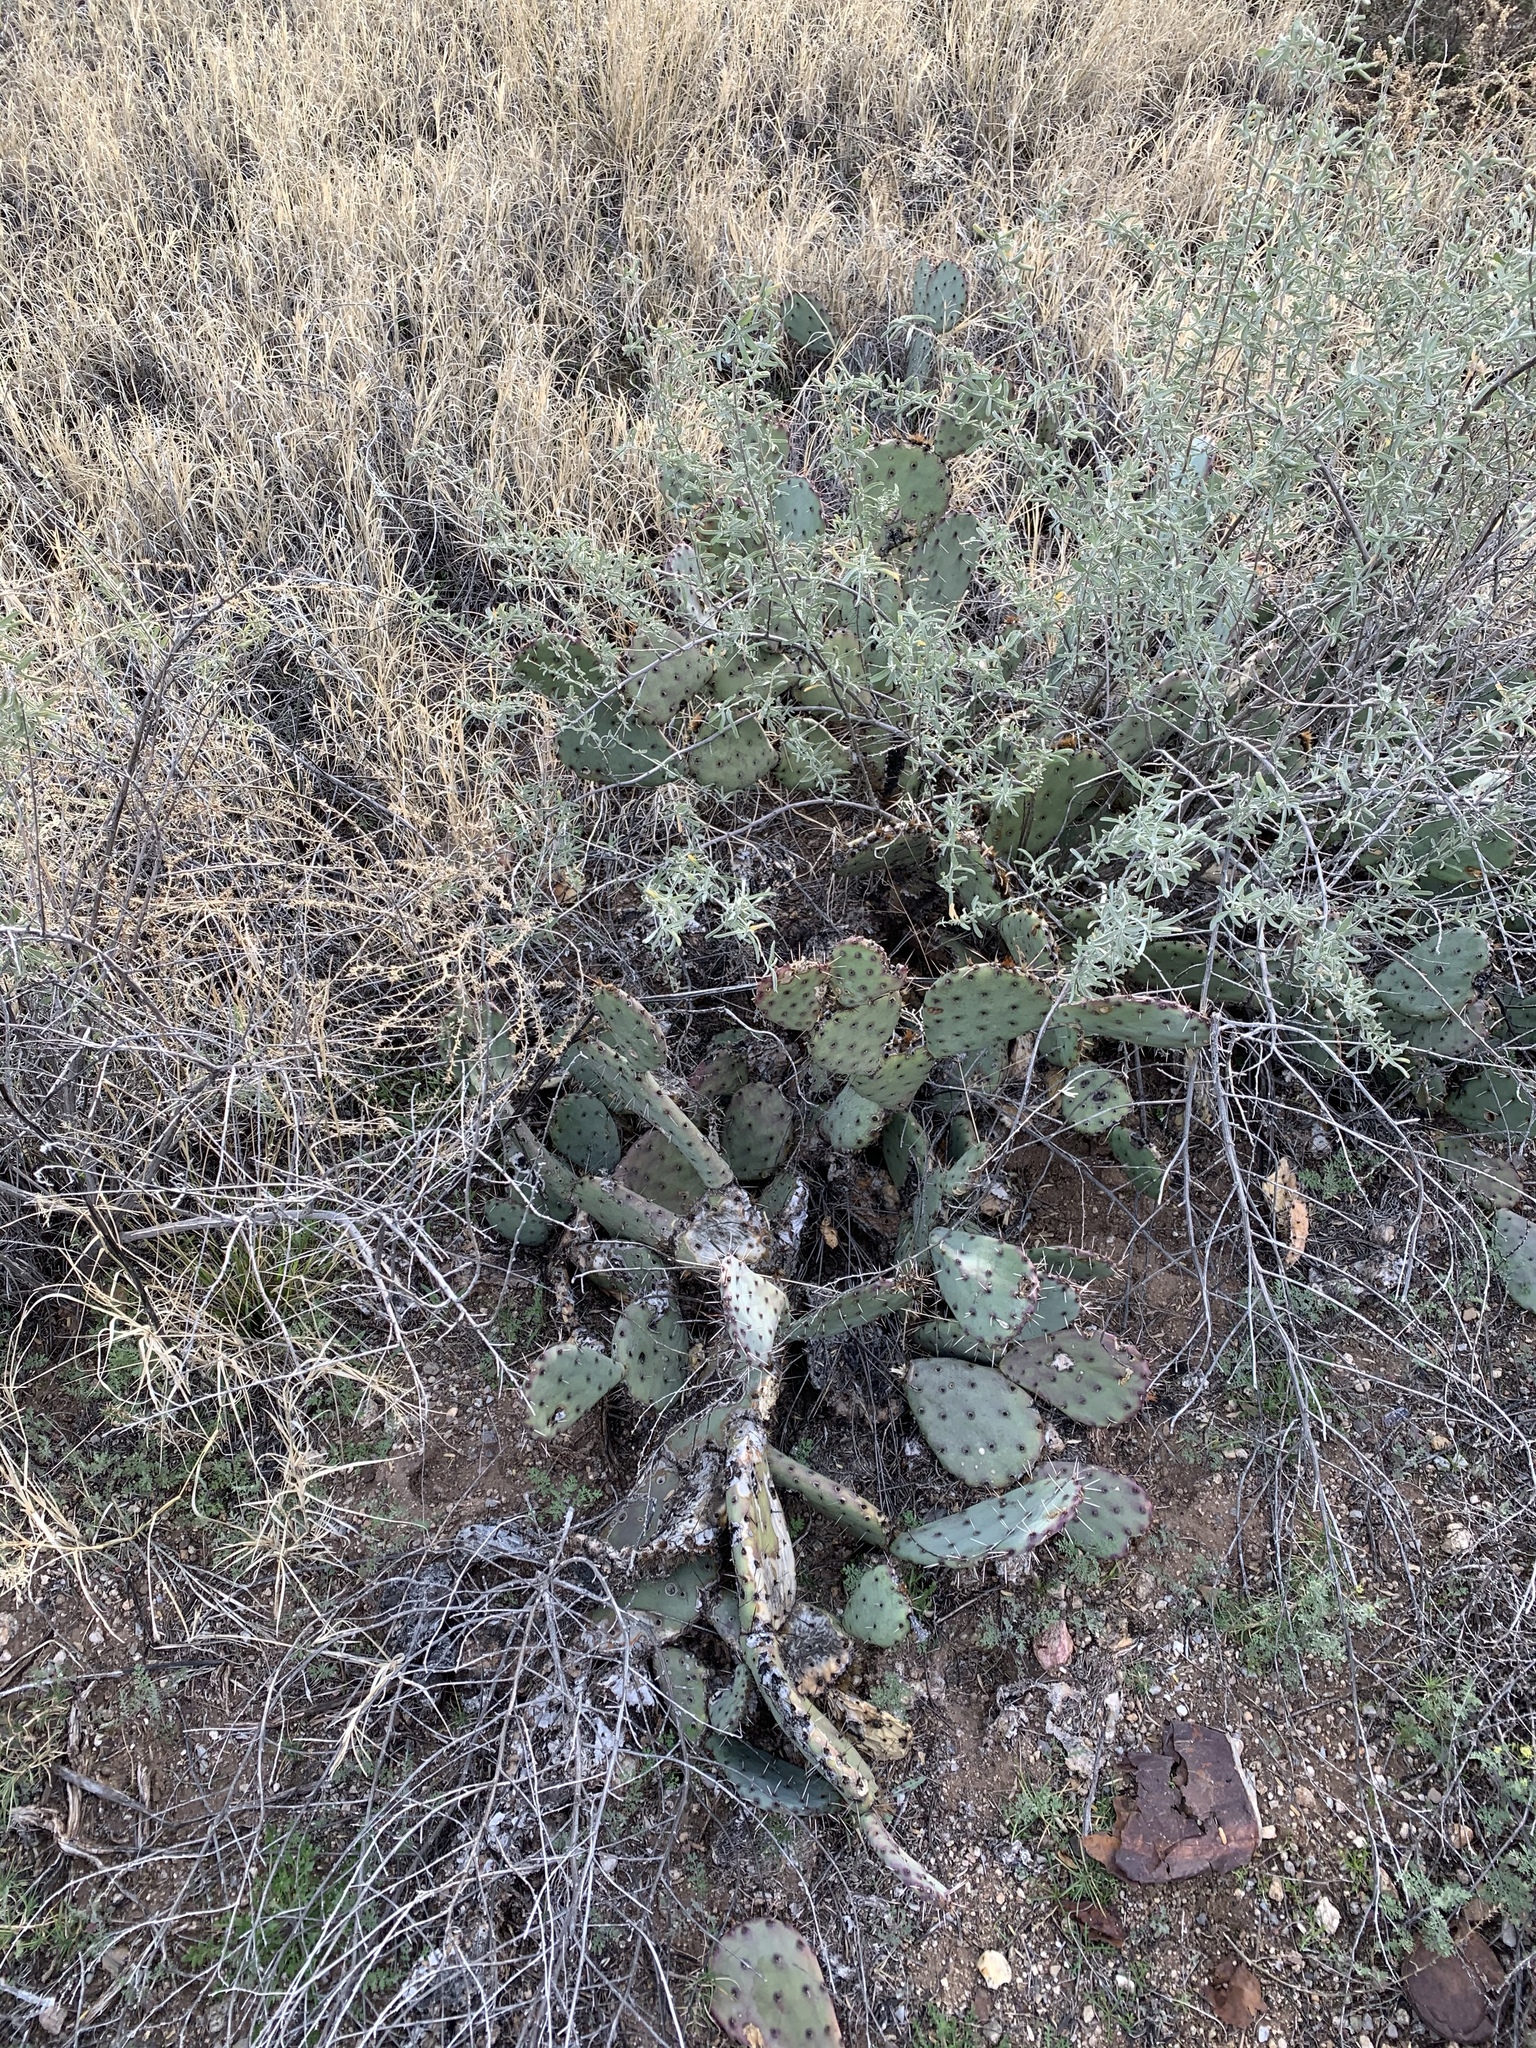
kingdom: Plantae
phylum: Tracheophyta
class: Magnoliopsida
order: Caryophyllales
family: Cactaceae
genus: Opuntia
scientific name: Opuntia phaeacantha
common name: New mexico prickly-pear
